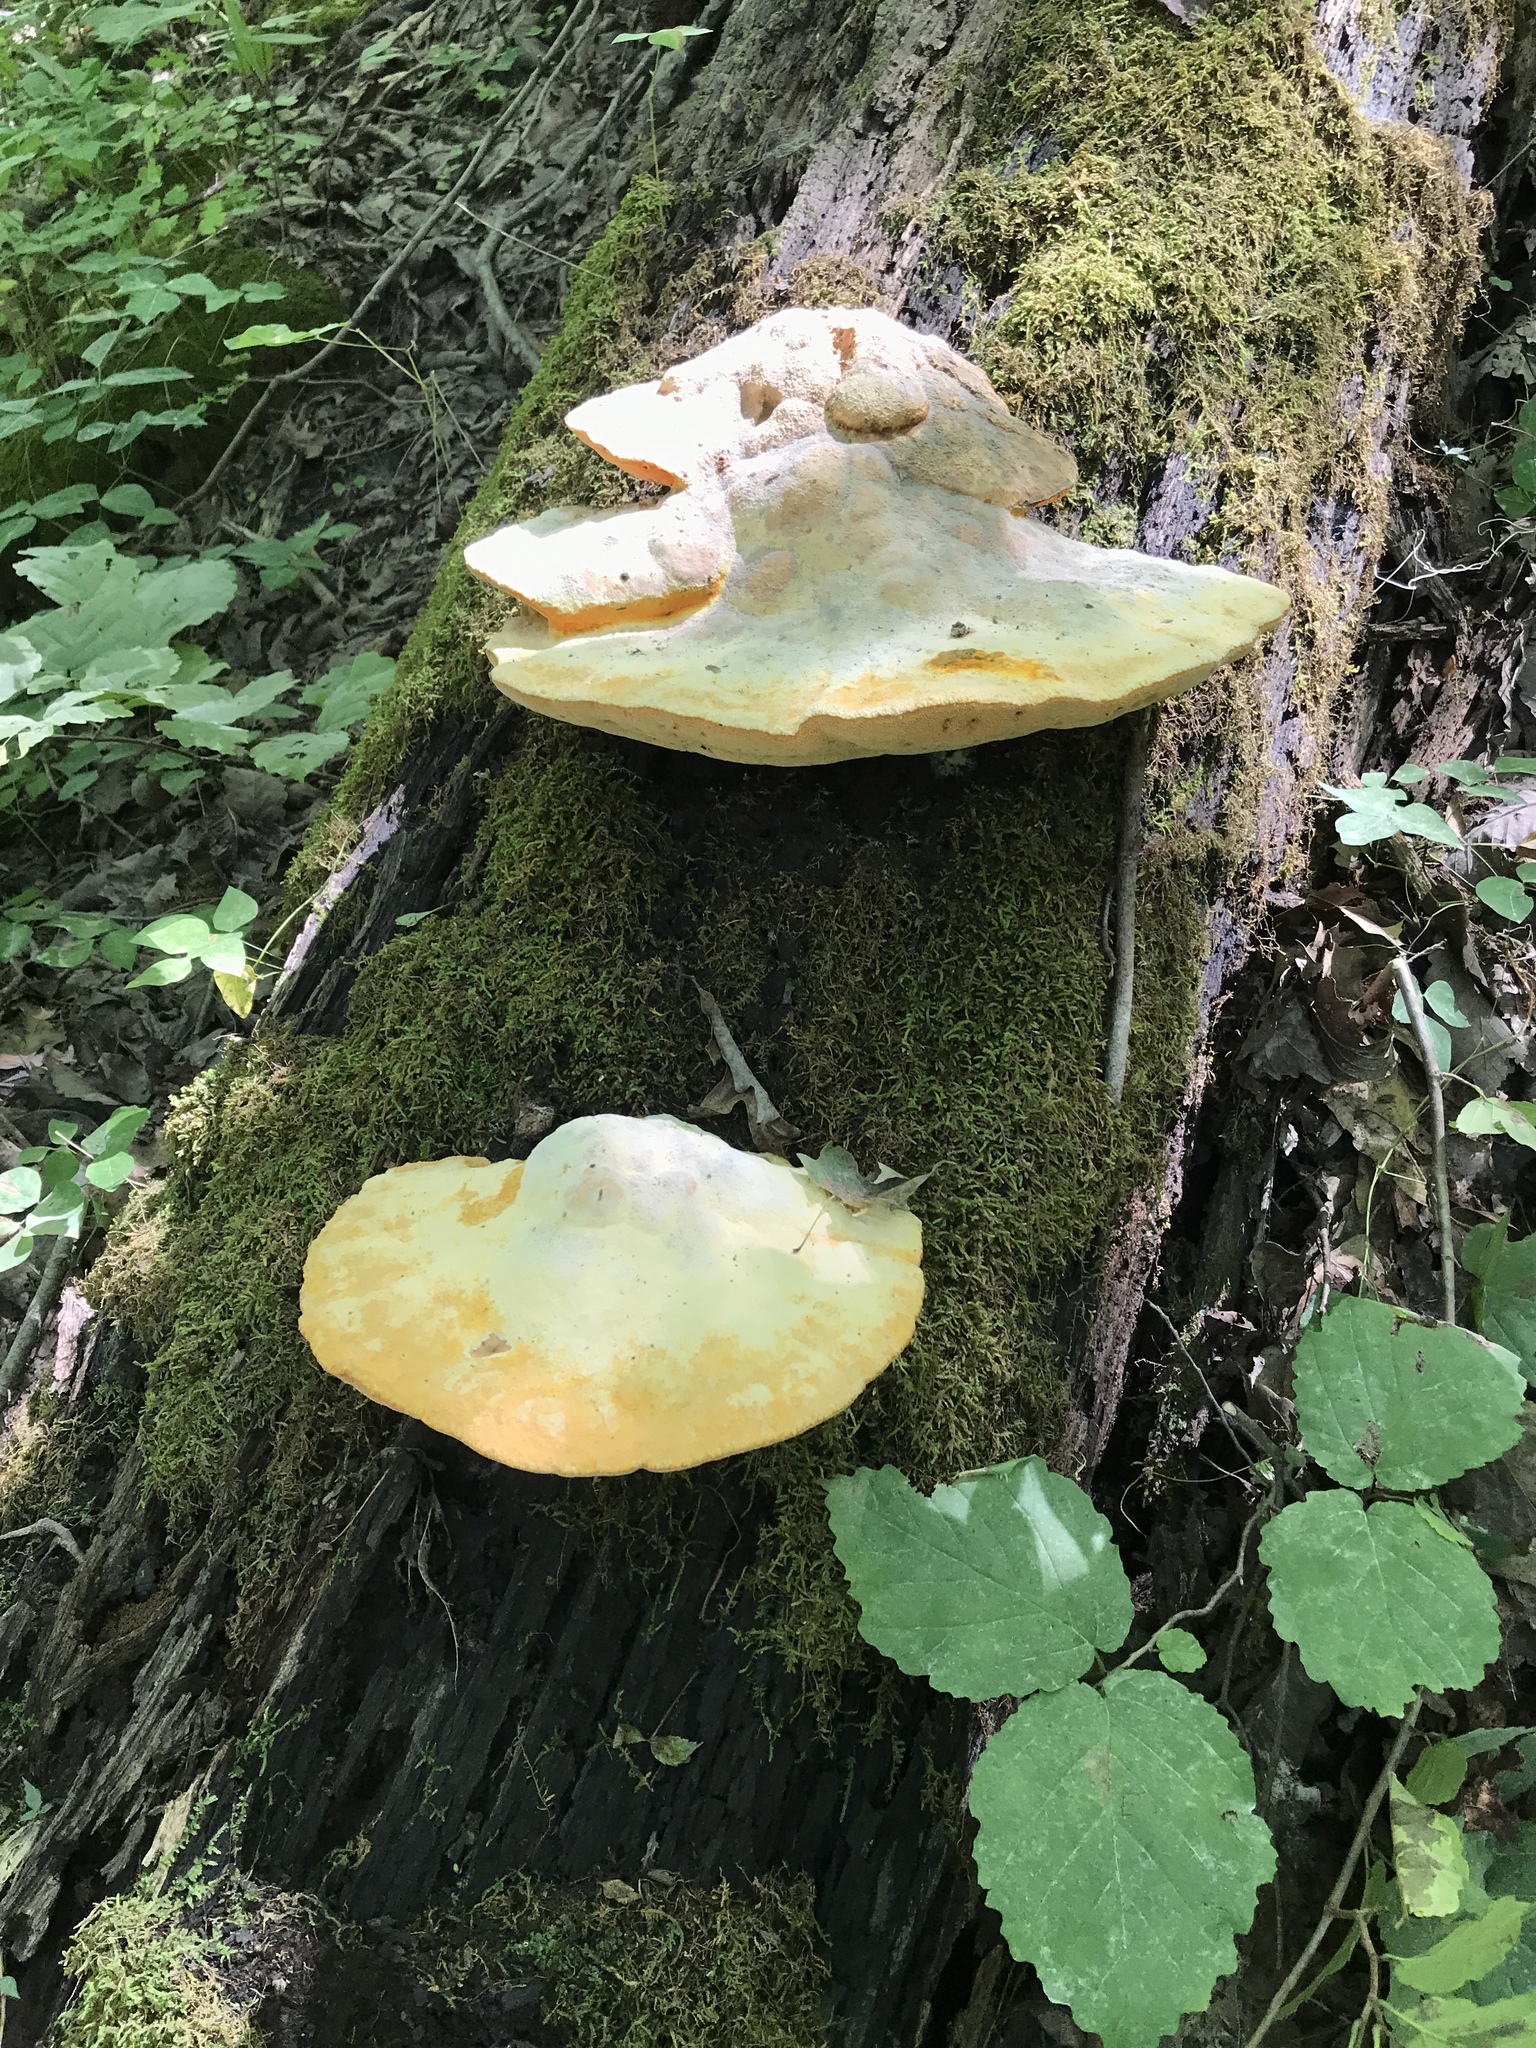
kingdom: Fungi
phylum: Basidiomycota
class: Agaricomycetes
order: Polyporales
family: Phanerochaetaceae
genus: Hapalopilus
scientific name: Hapalopilus croceus
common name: Orange polypore
